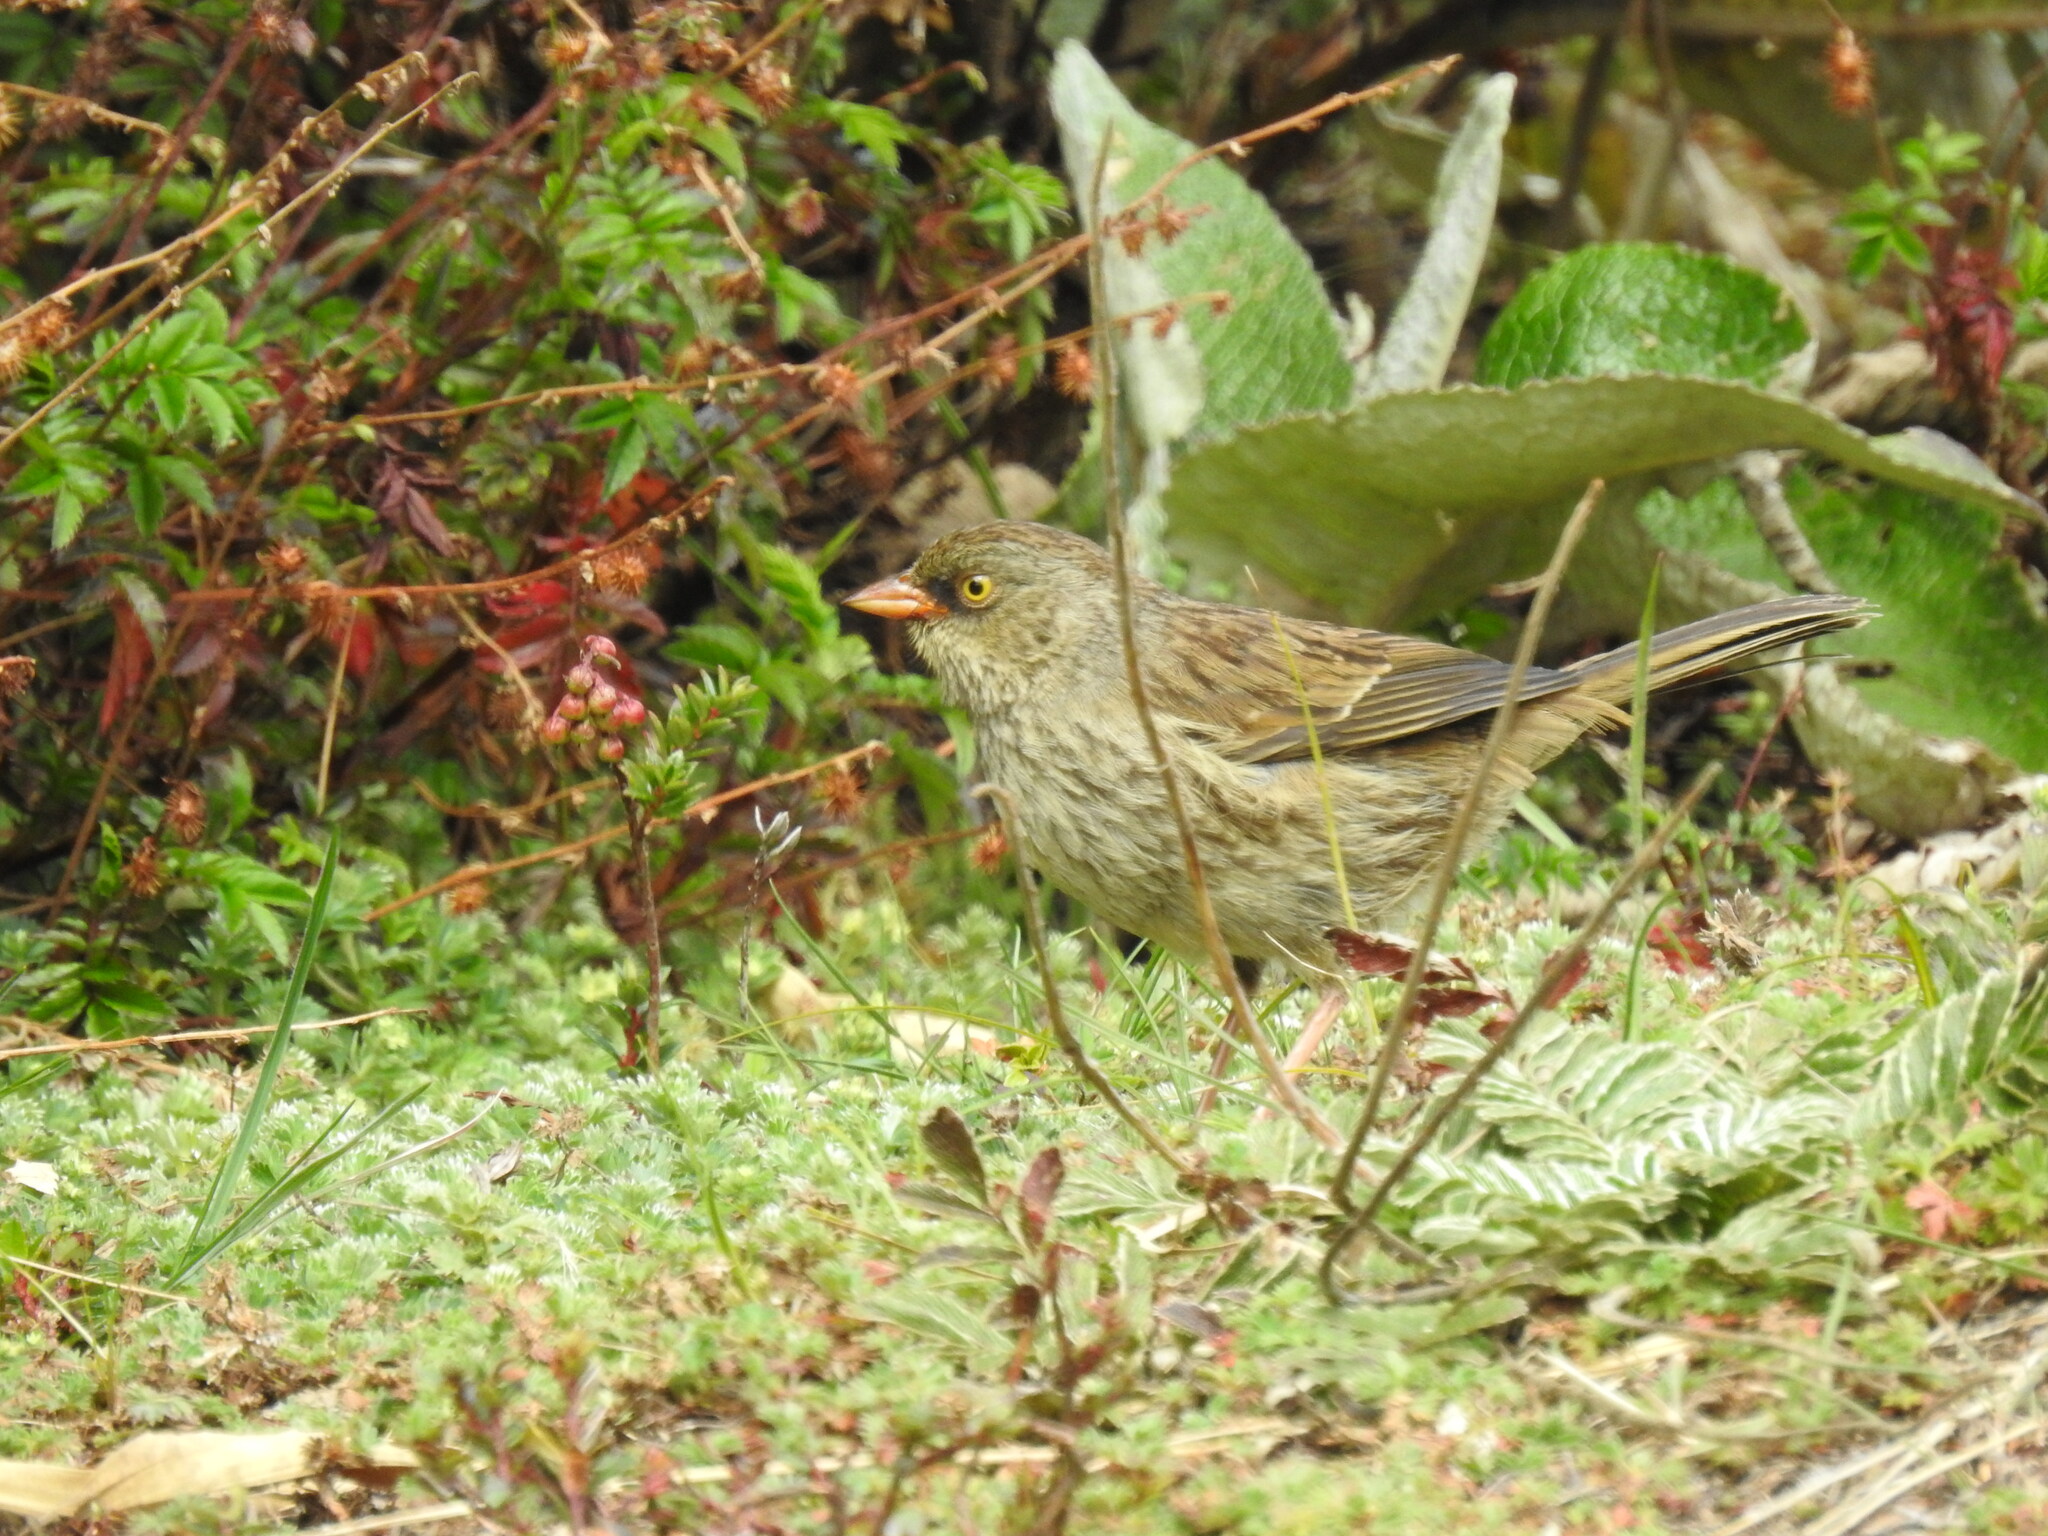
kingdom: Animalia
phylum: Chordata
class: Aves
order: Passeriformes
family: Passerellidae
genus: Junco
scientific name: Junco vulcani
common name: Volcano junco
